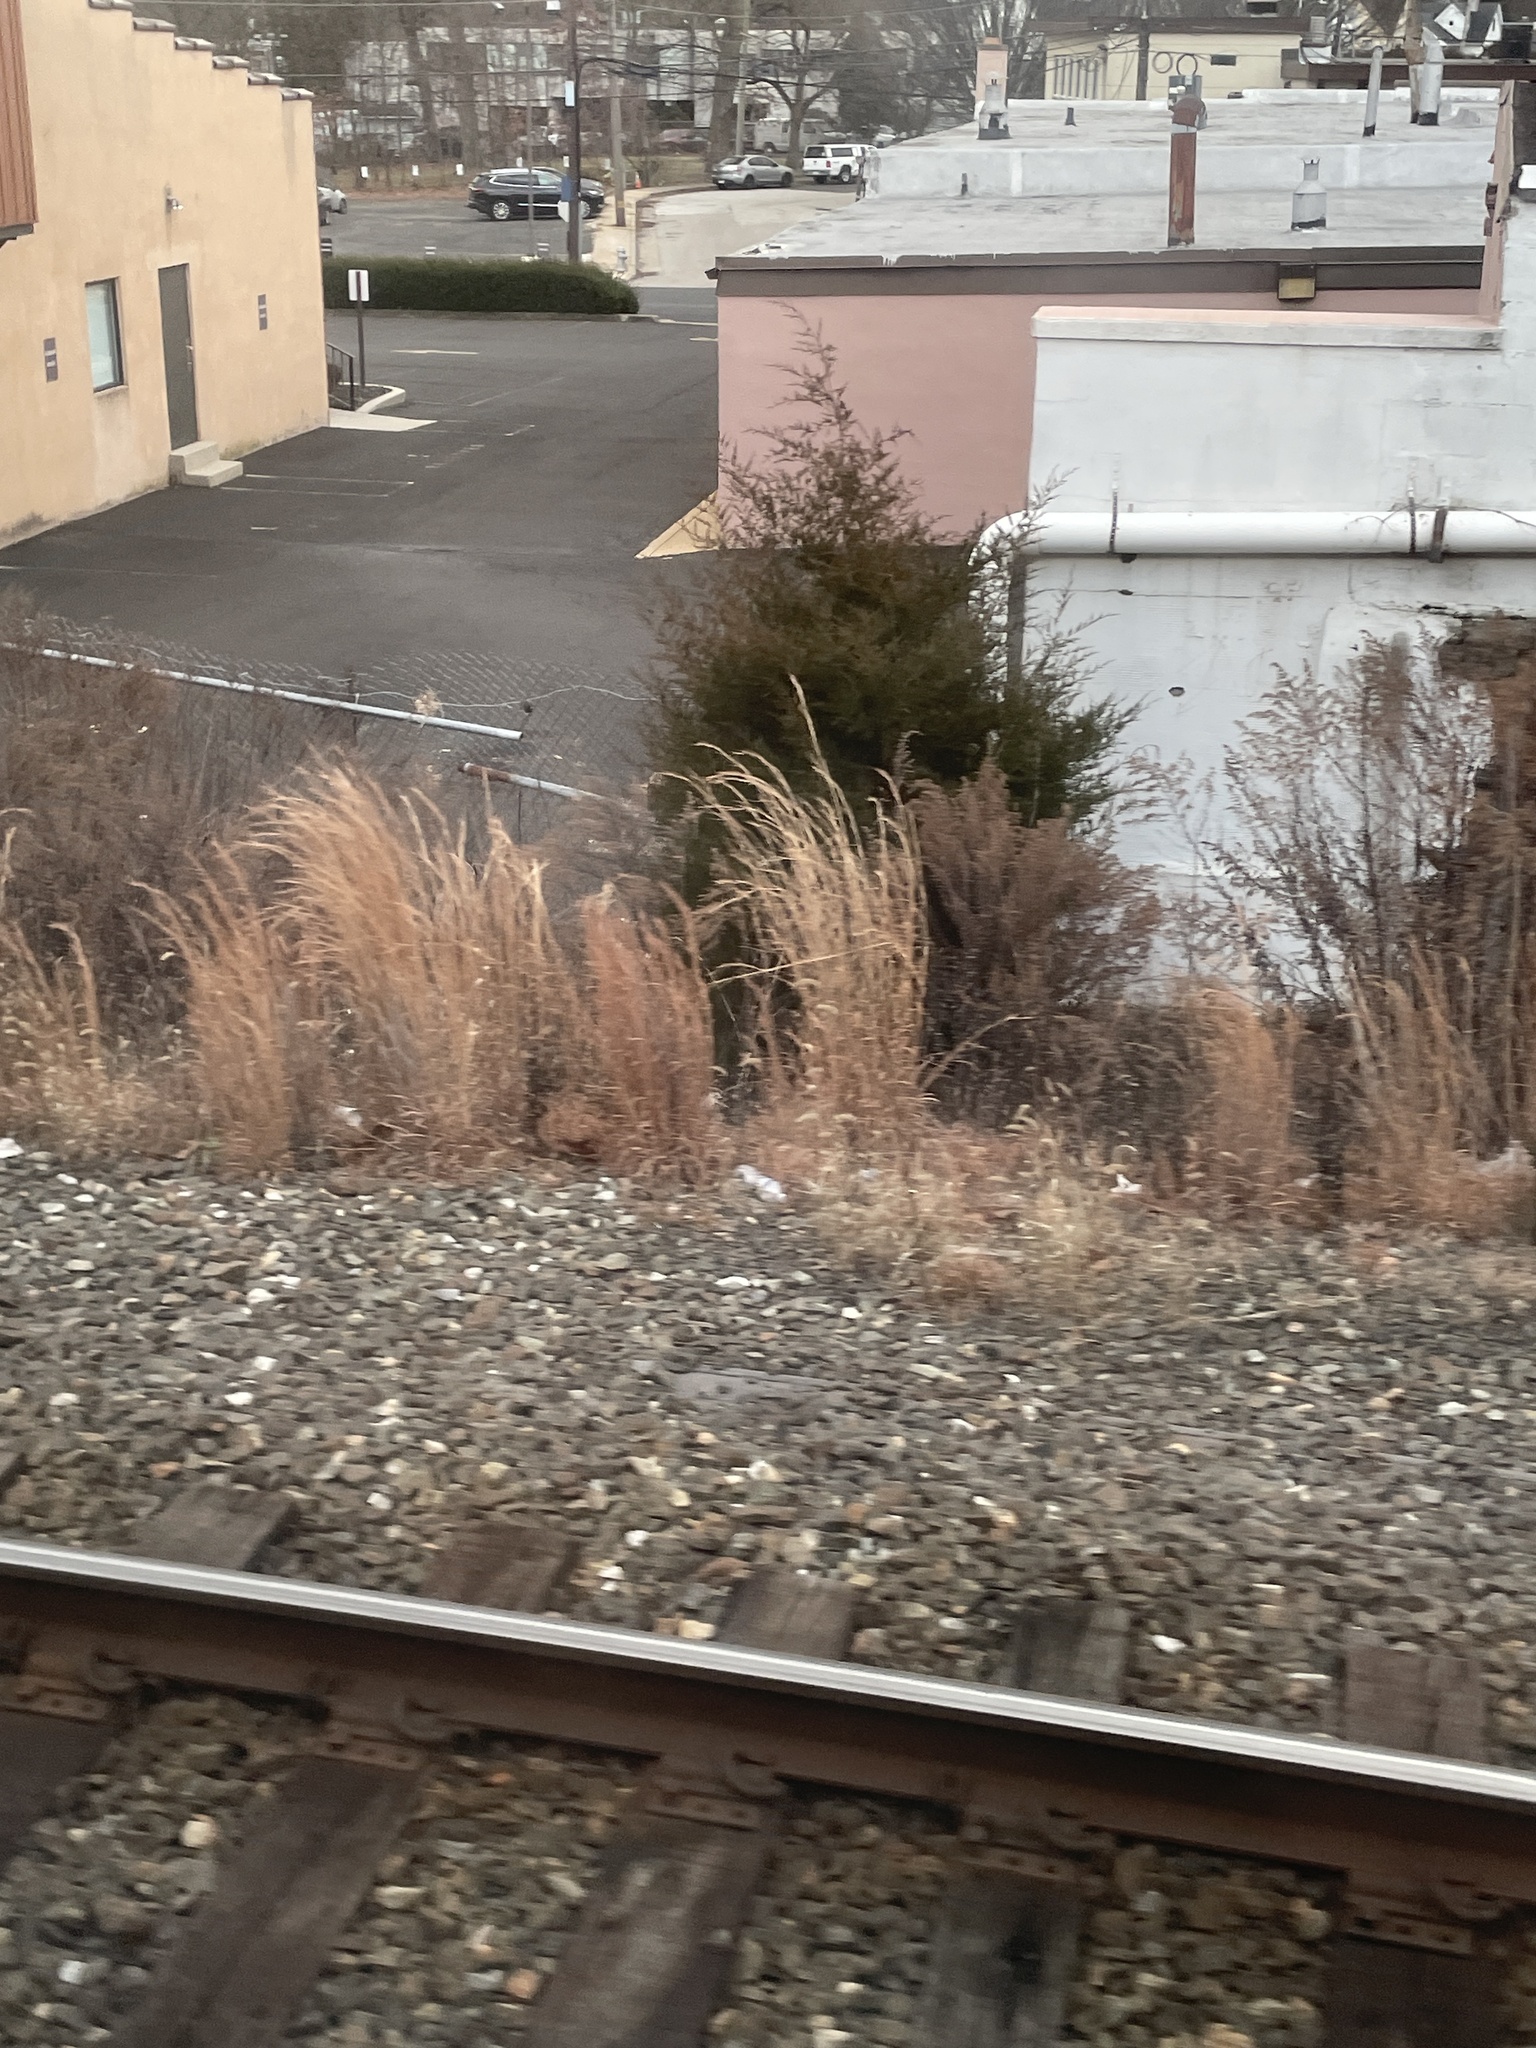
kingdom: Plantae
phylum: Tracheophyta
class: Liliopsida
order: Poales
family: Poaceae
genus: Andropogon
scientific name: Andropogon virginicus
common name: Broomsedge bluestem
